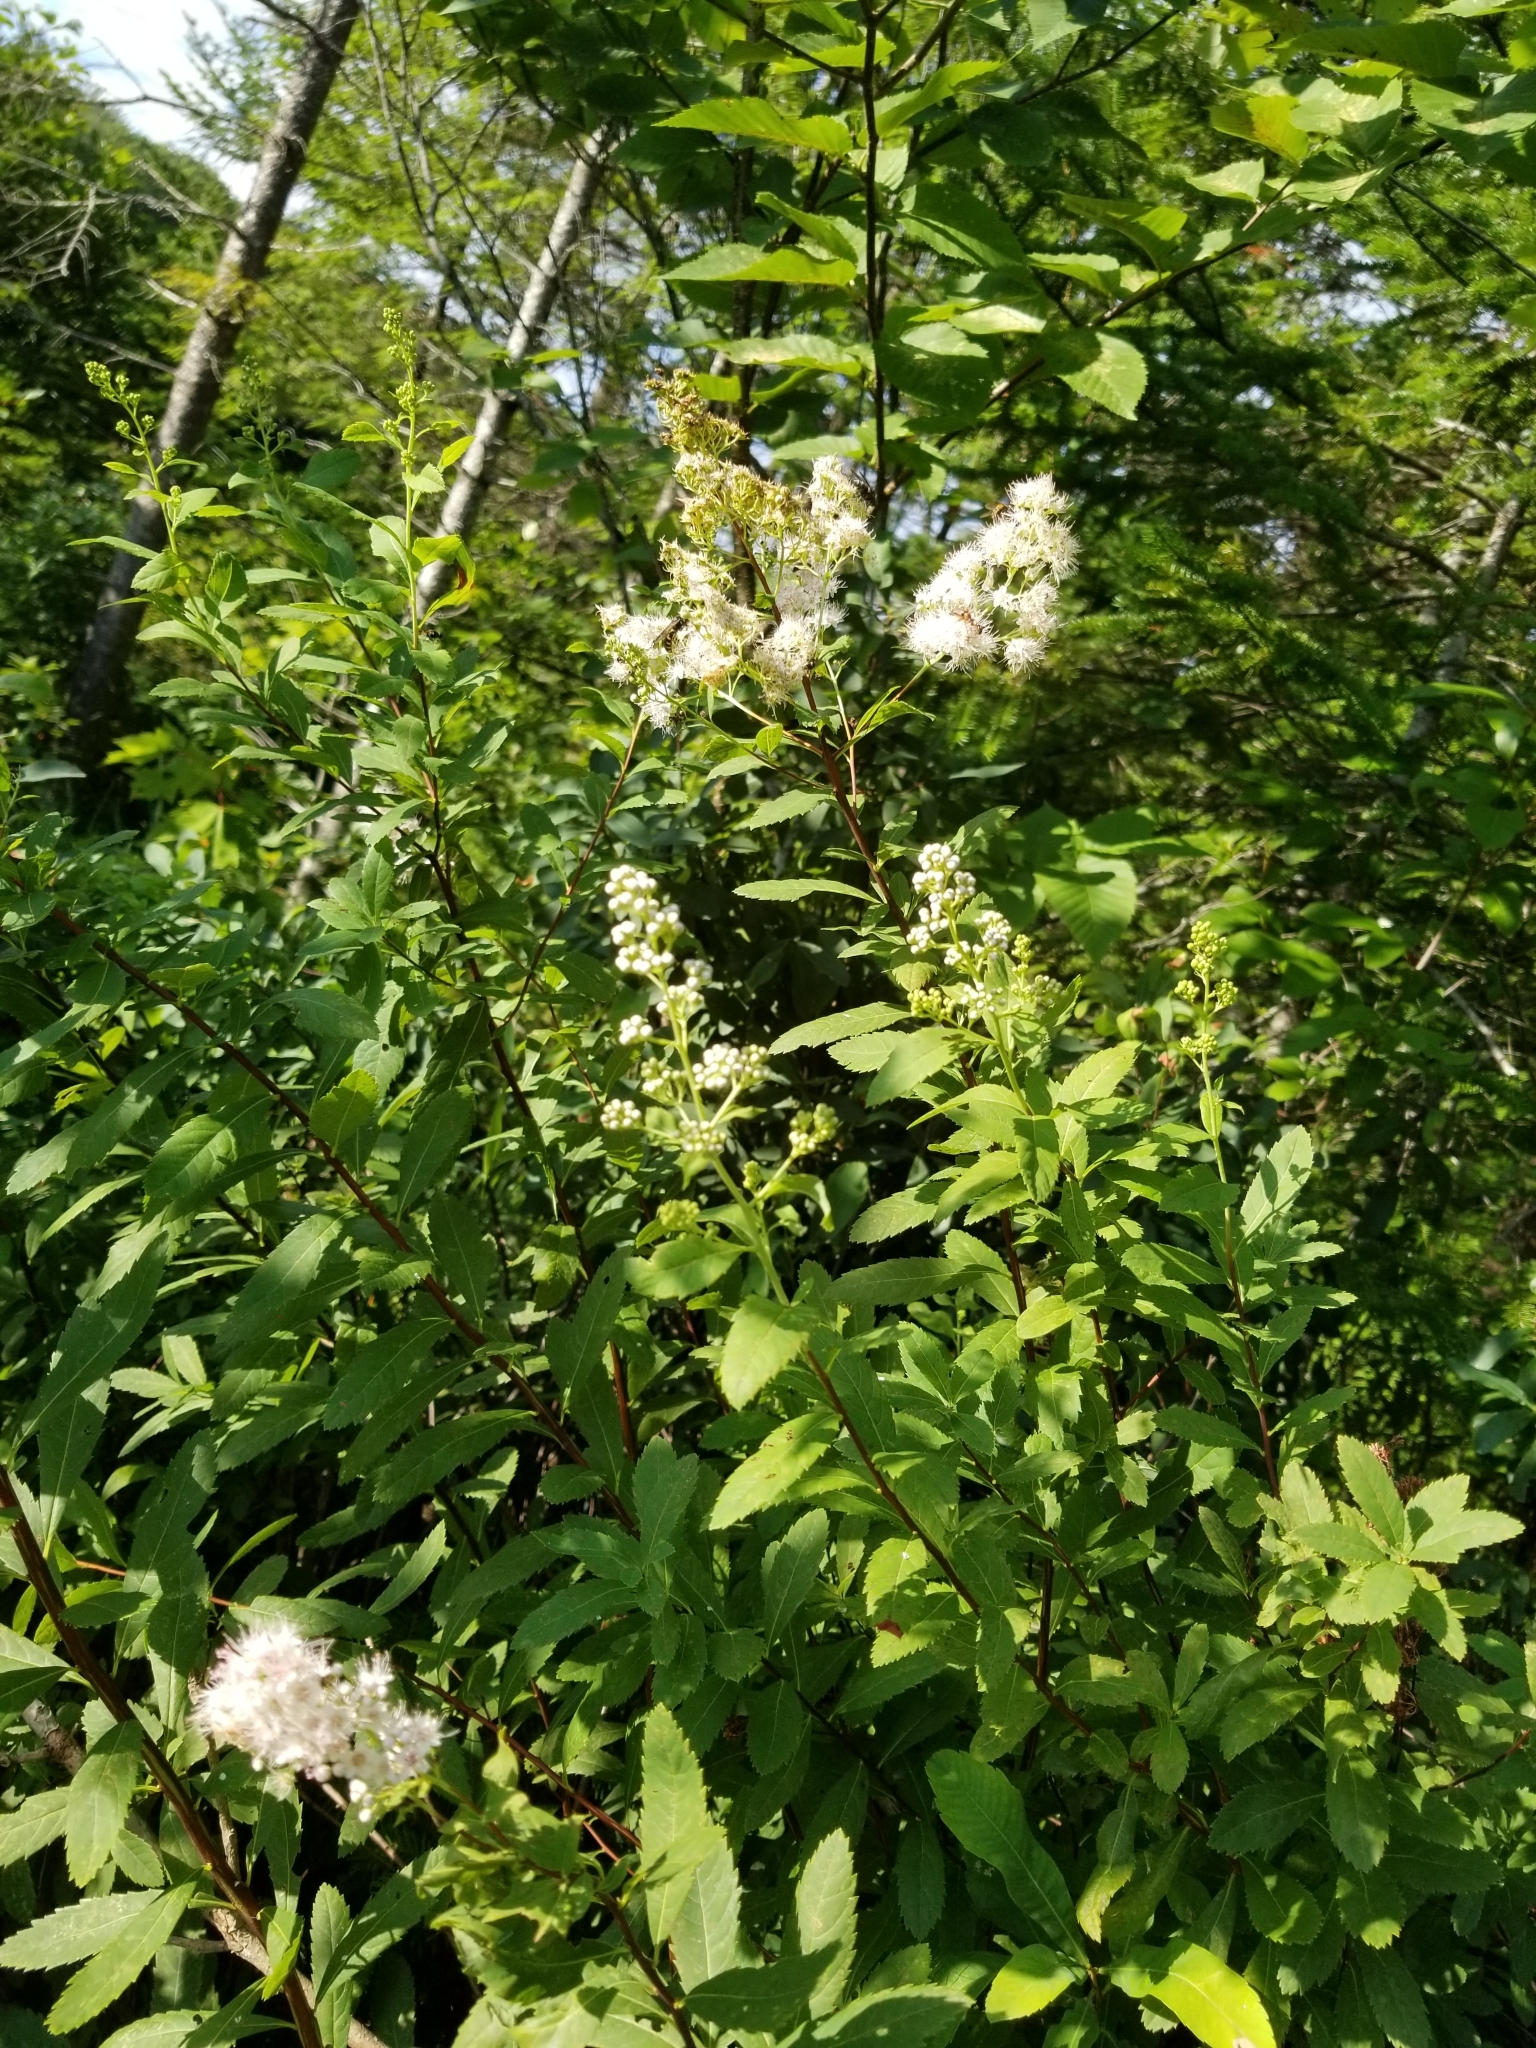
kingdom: Plantae
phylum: Tracheophyta
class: Magnoliopsida
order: Rosales
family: Rosaceae
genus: Spiraea
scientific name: Spiraea alba
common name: Pale bridewort
